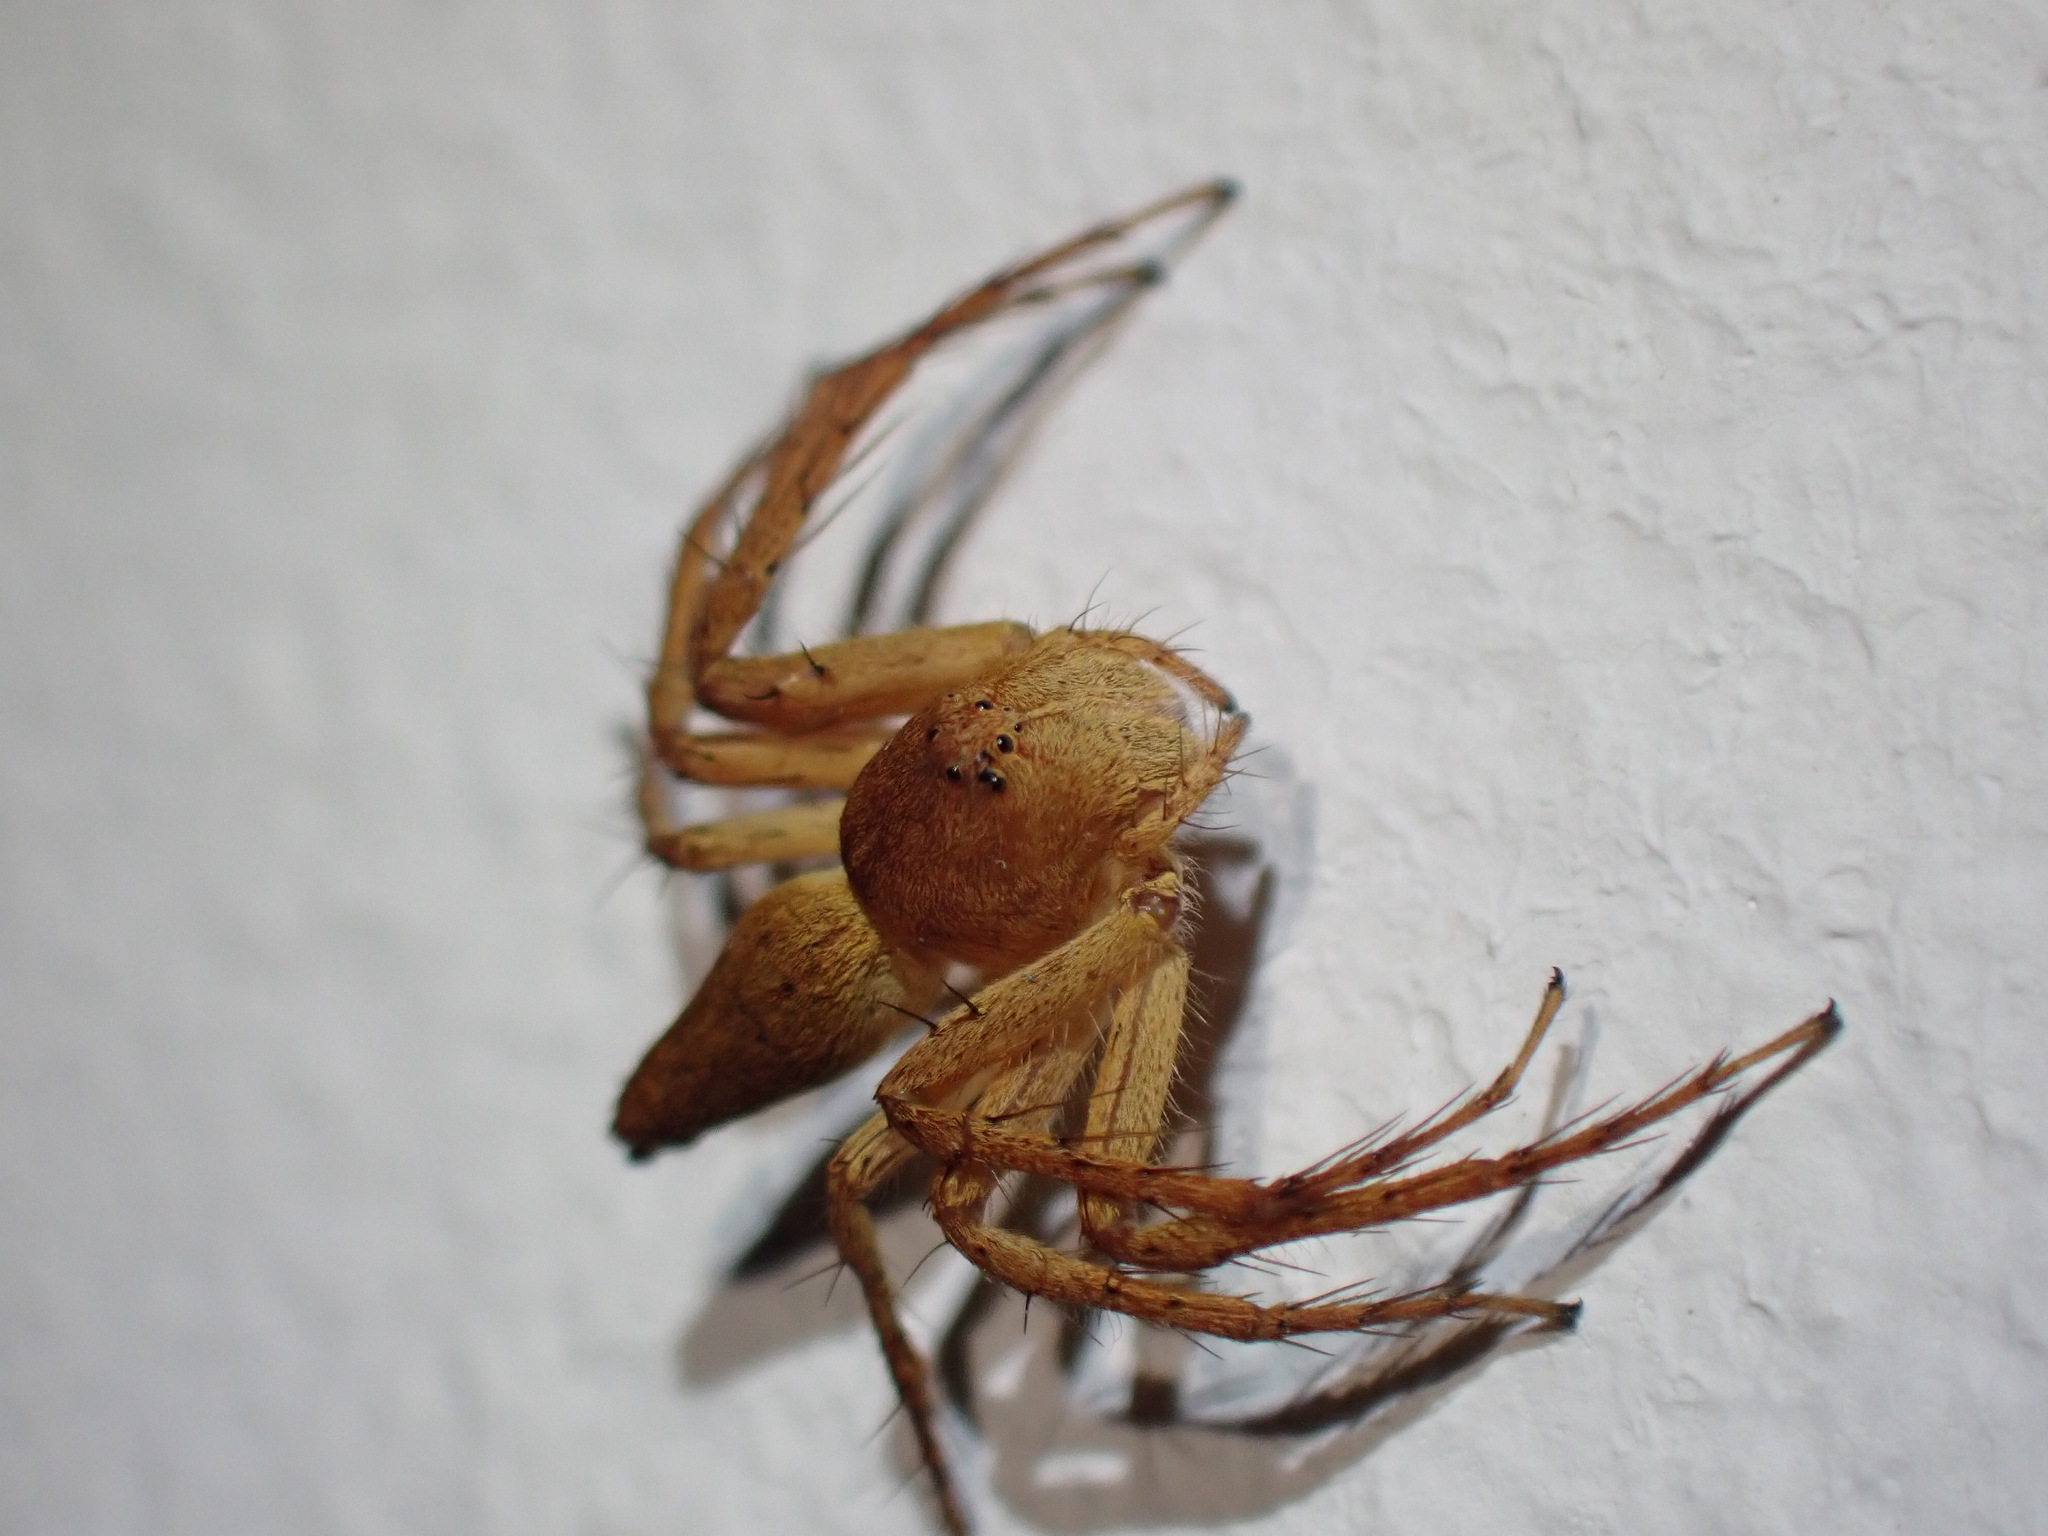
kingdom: Animalia
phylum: Arthropoda
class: Arachnida
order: Araneae
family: Oxyopidae
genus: Oxyopes
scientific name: Oxyopes flavipalpis
